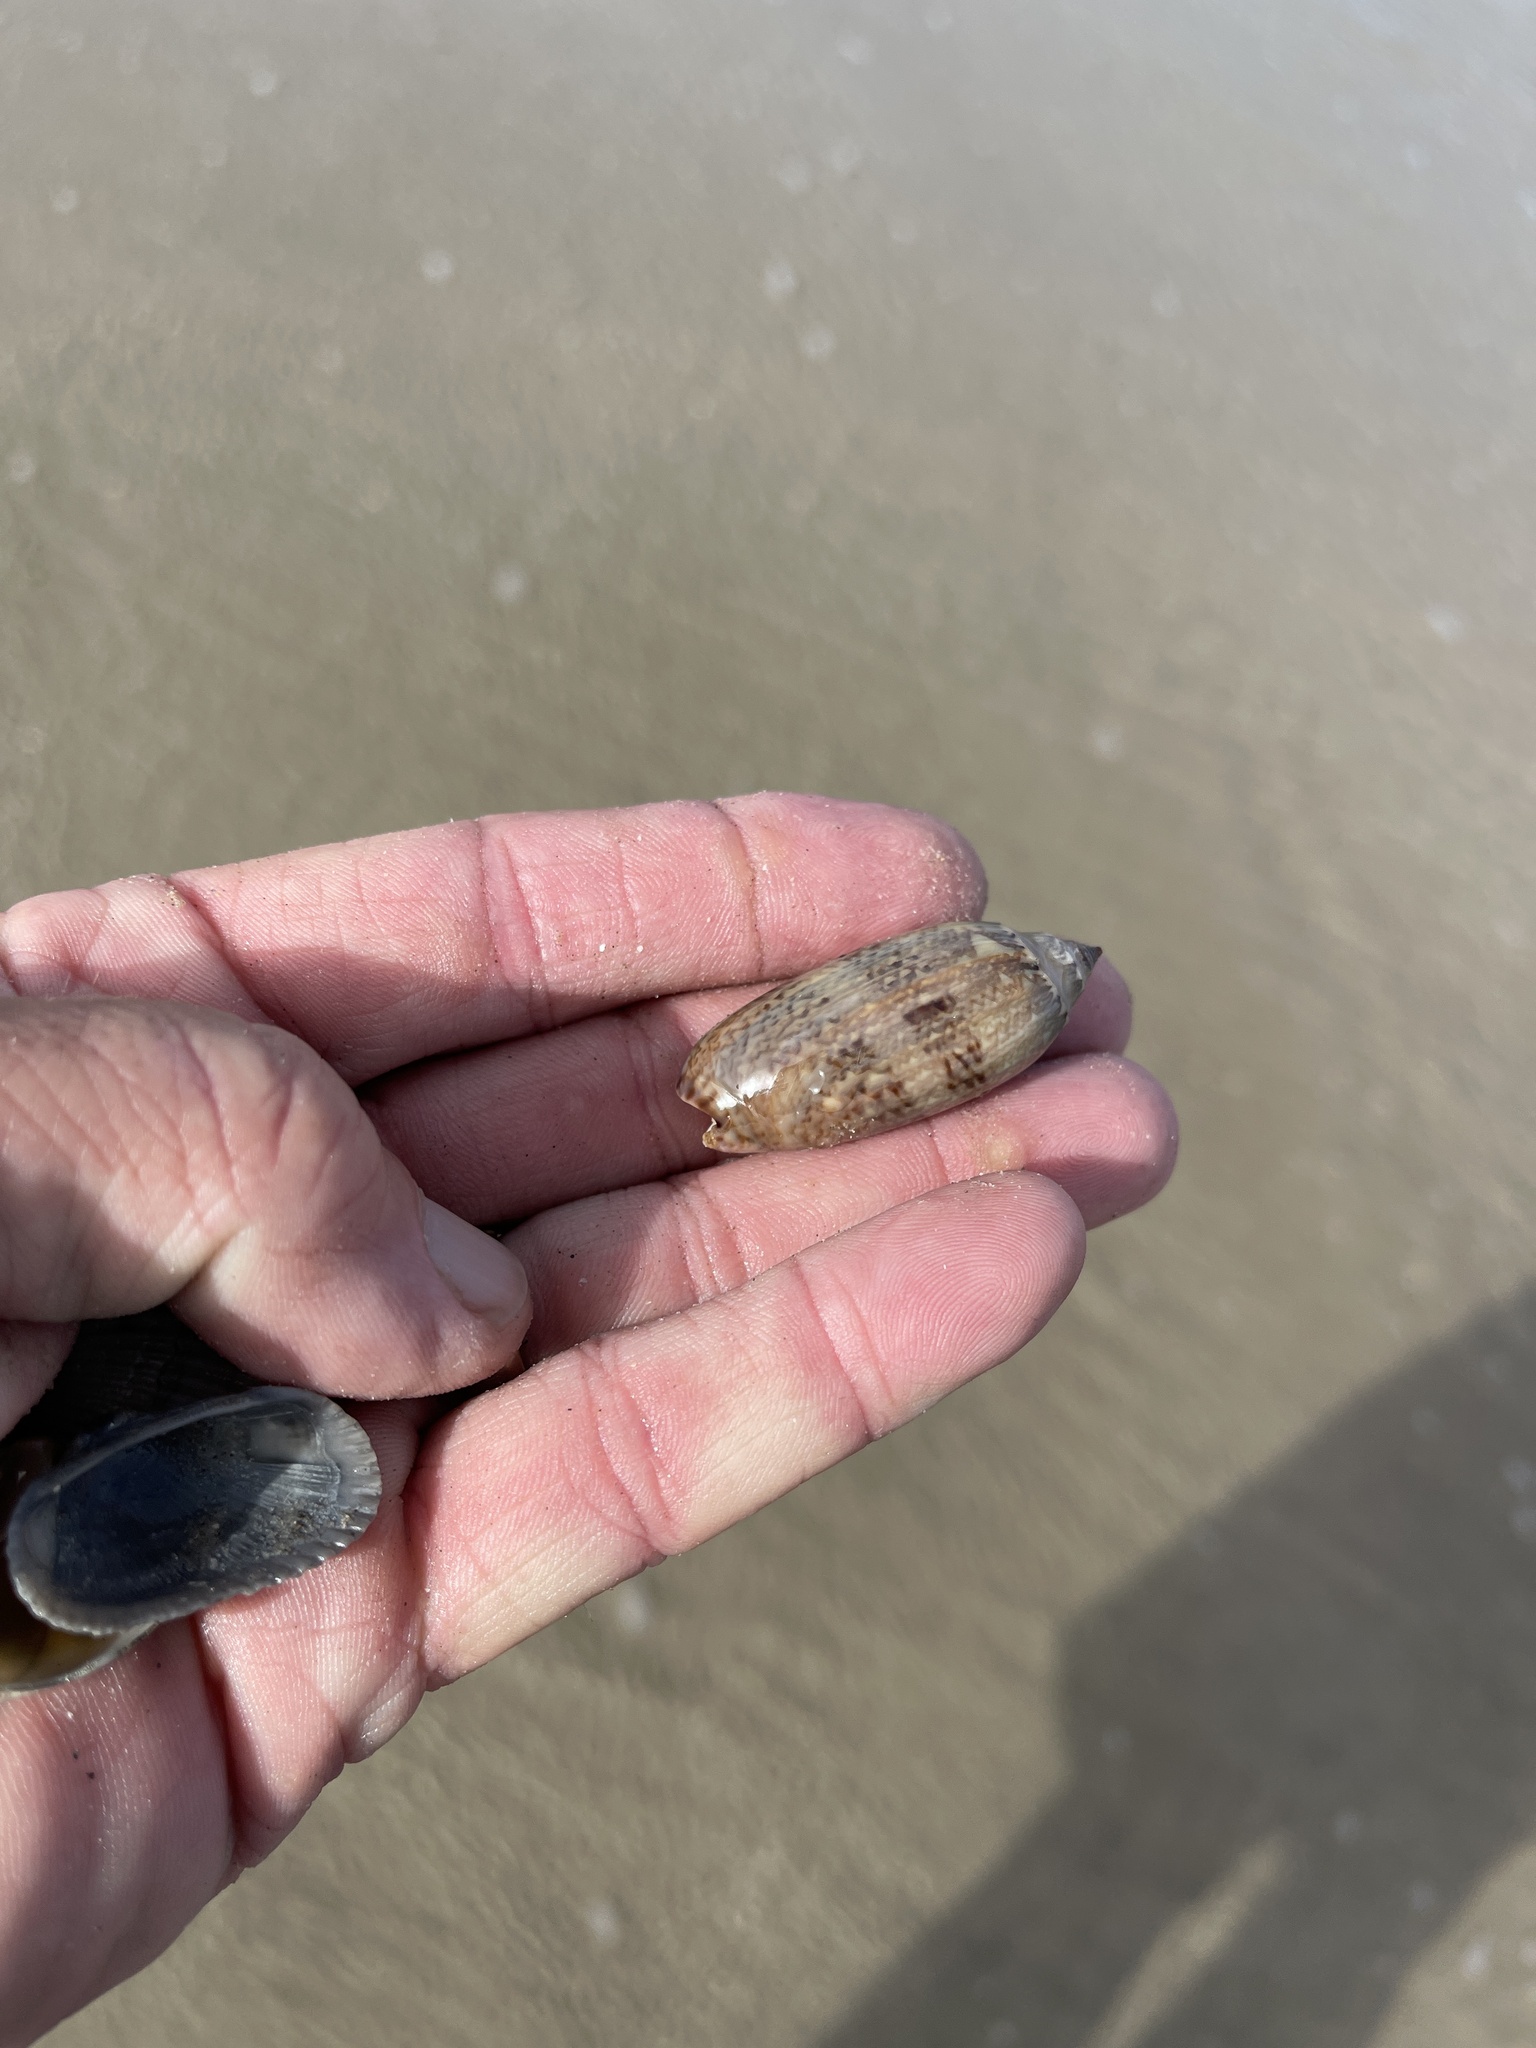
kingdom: Animalia
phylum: Mollusca
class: Gastropoda
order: Neogastropoda
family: Olividae
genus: Oliva
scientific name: Oliva sayana
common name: Lettered olive
